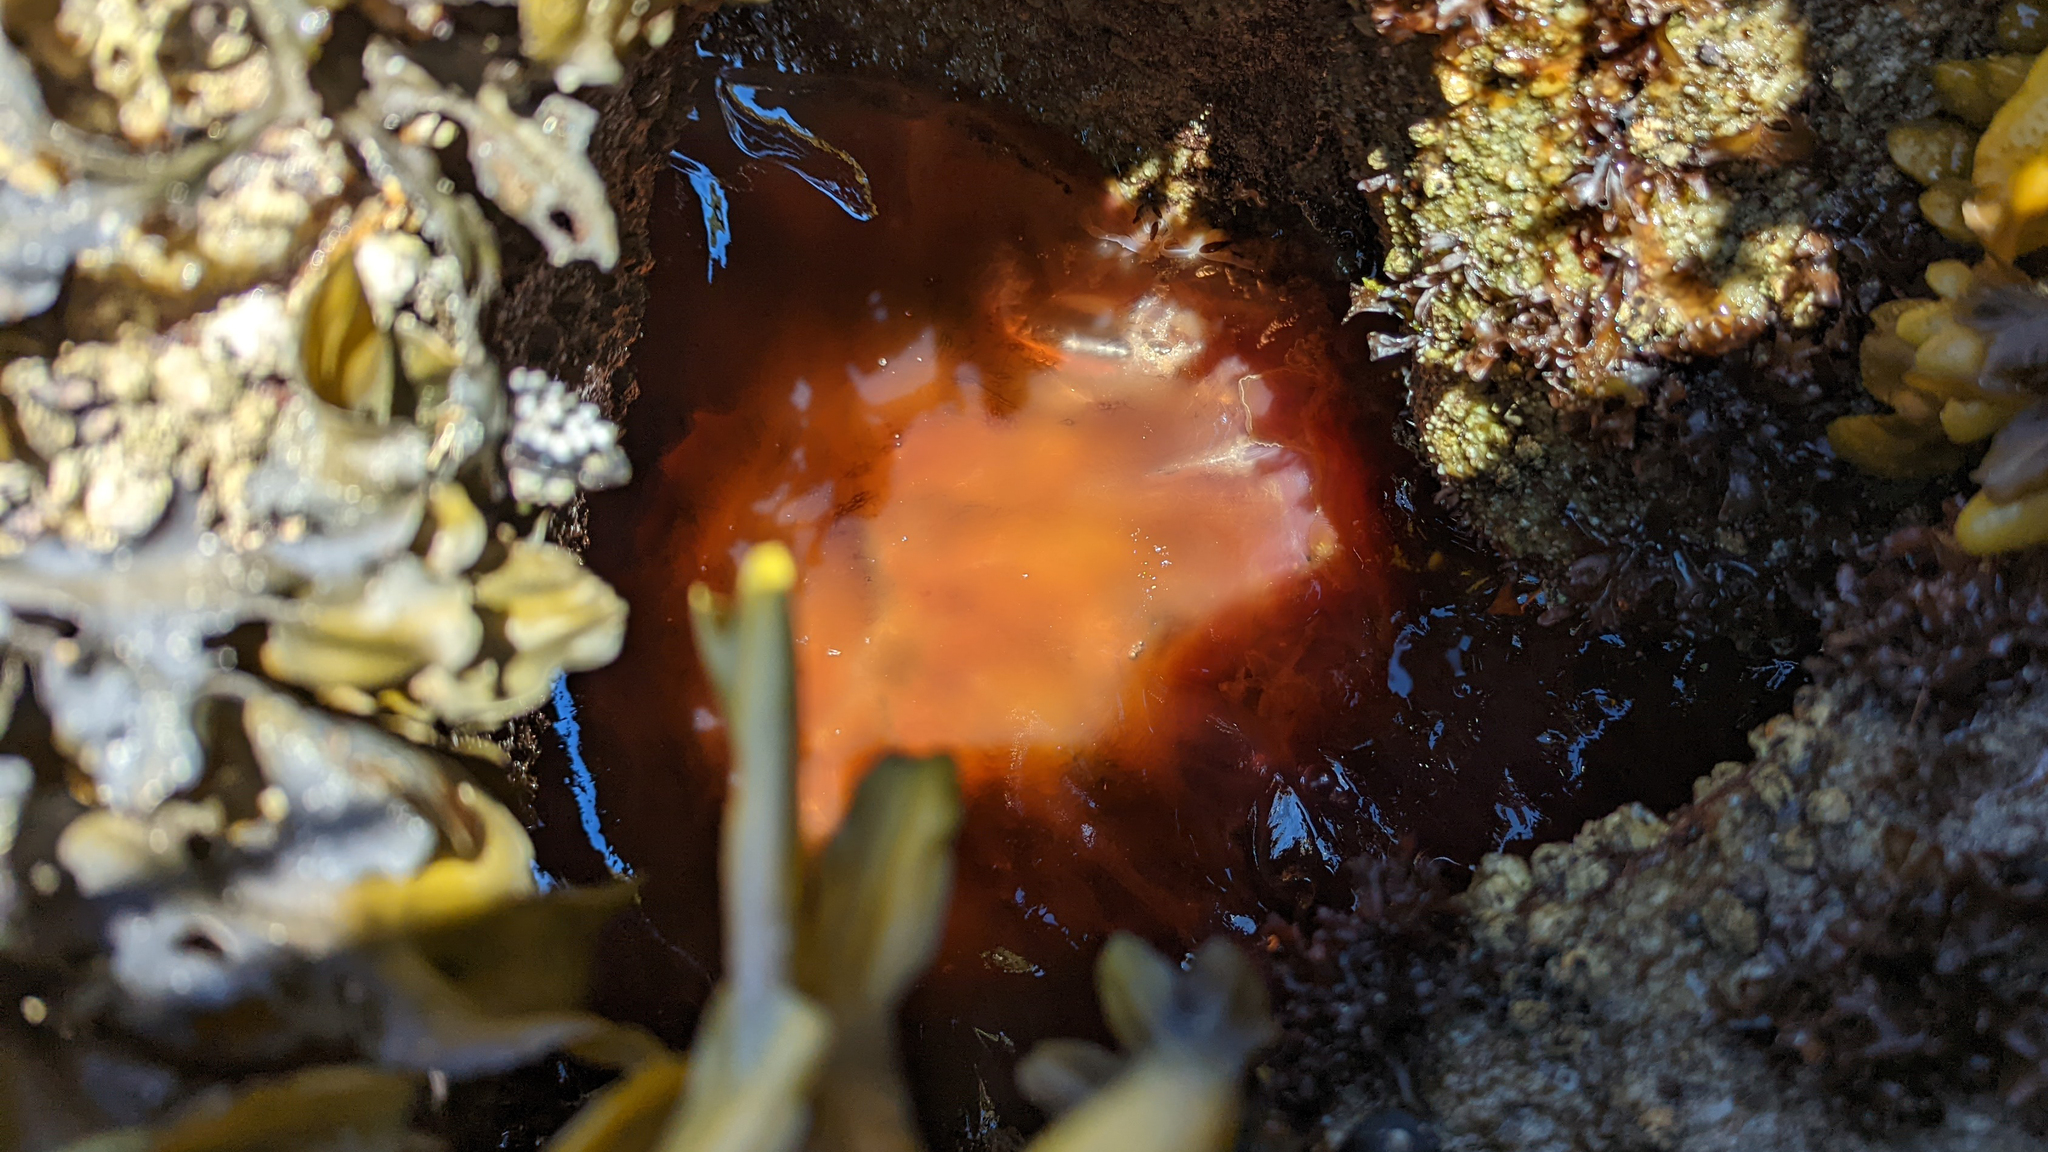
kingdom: Animalia
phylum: Cnidaria
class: Scyphozoa
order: Semaeostomeae
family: Cyaneidae
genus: Cyanea
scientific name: Cyanea ferruginea
